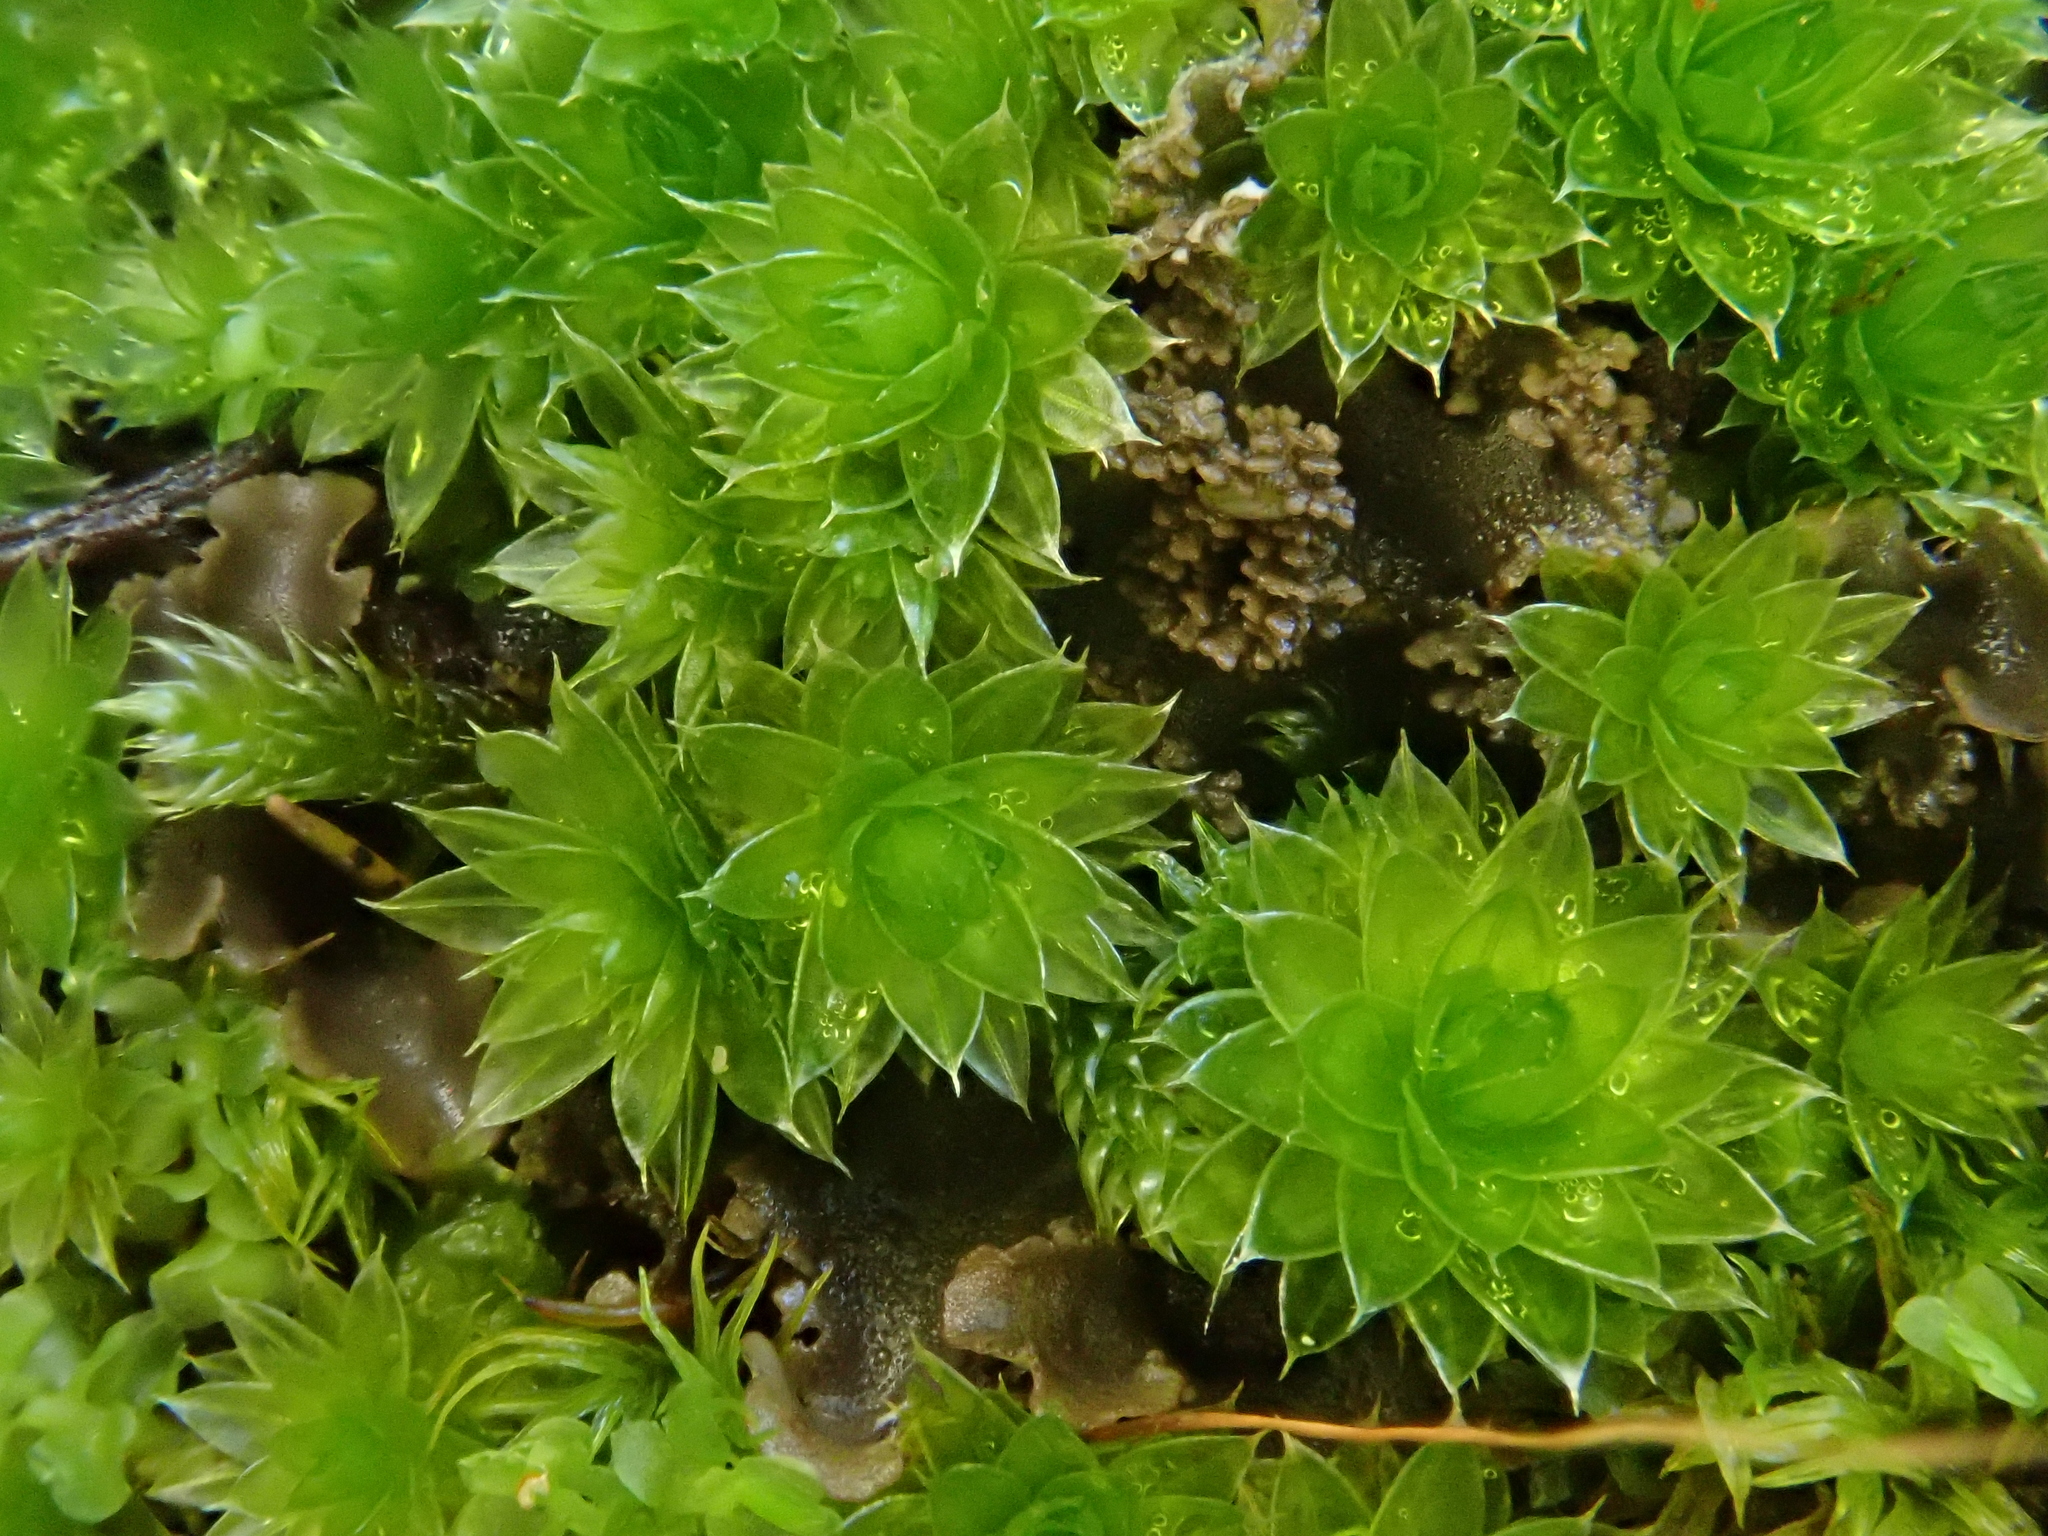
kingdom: Plantae
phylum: Bryophyta
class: Bryopsida
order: Bryales
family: Bryaceae
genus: Rosulabryum
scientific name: Rosulabryum canariense
